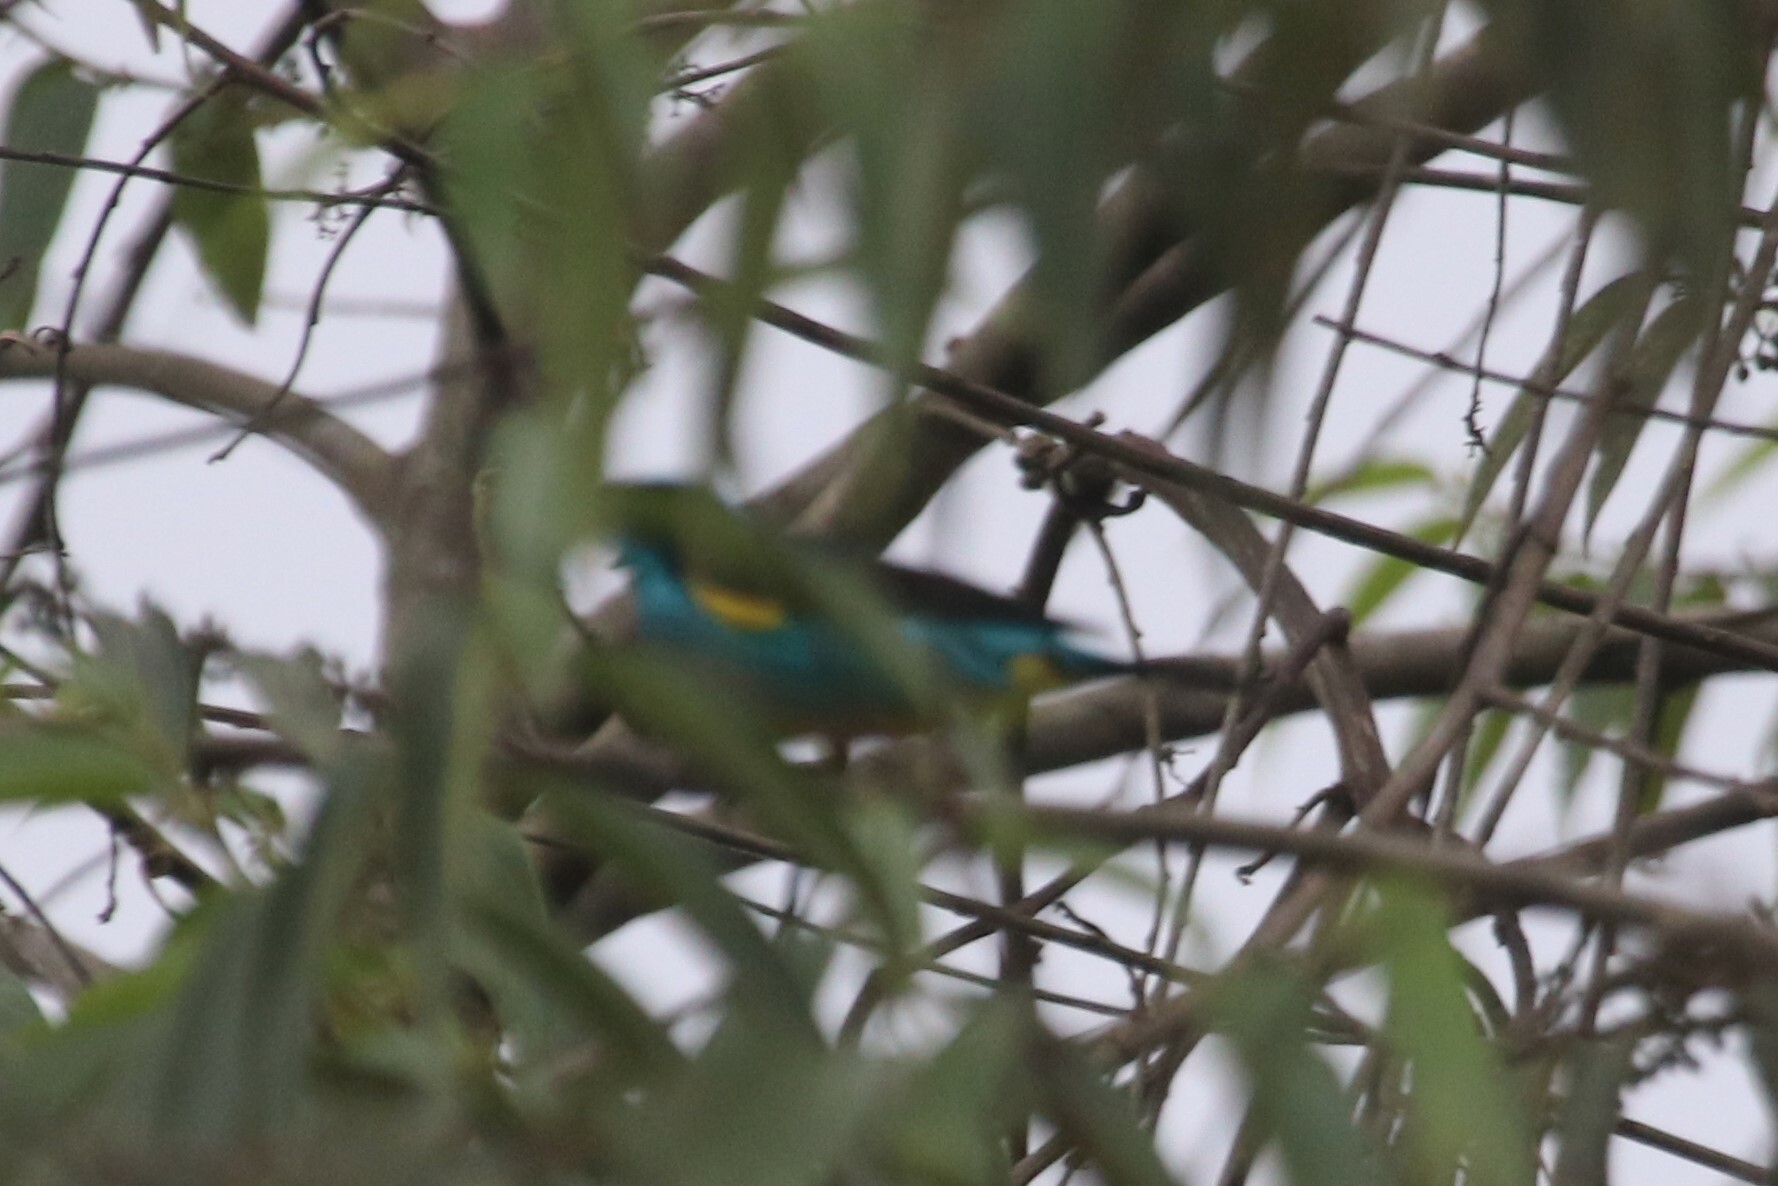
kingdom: Animalia
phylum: Chordata
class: Aves
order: Passeriformes
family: Thraupidae
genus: Dacnis
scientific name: Dacnis lineata
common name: Black-faced dacnis
